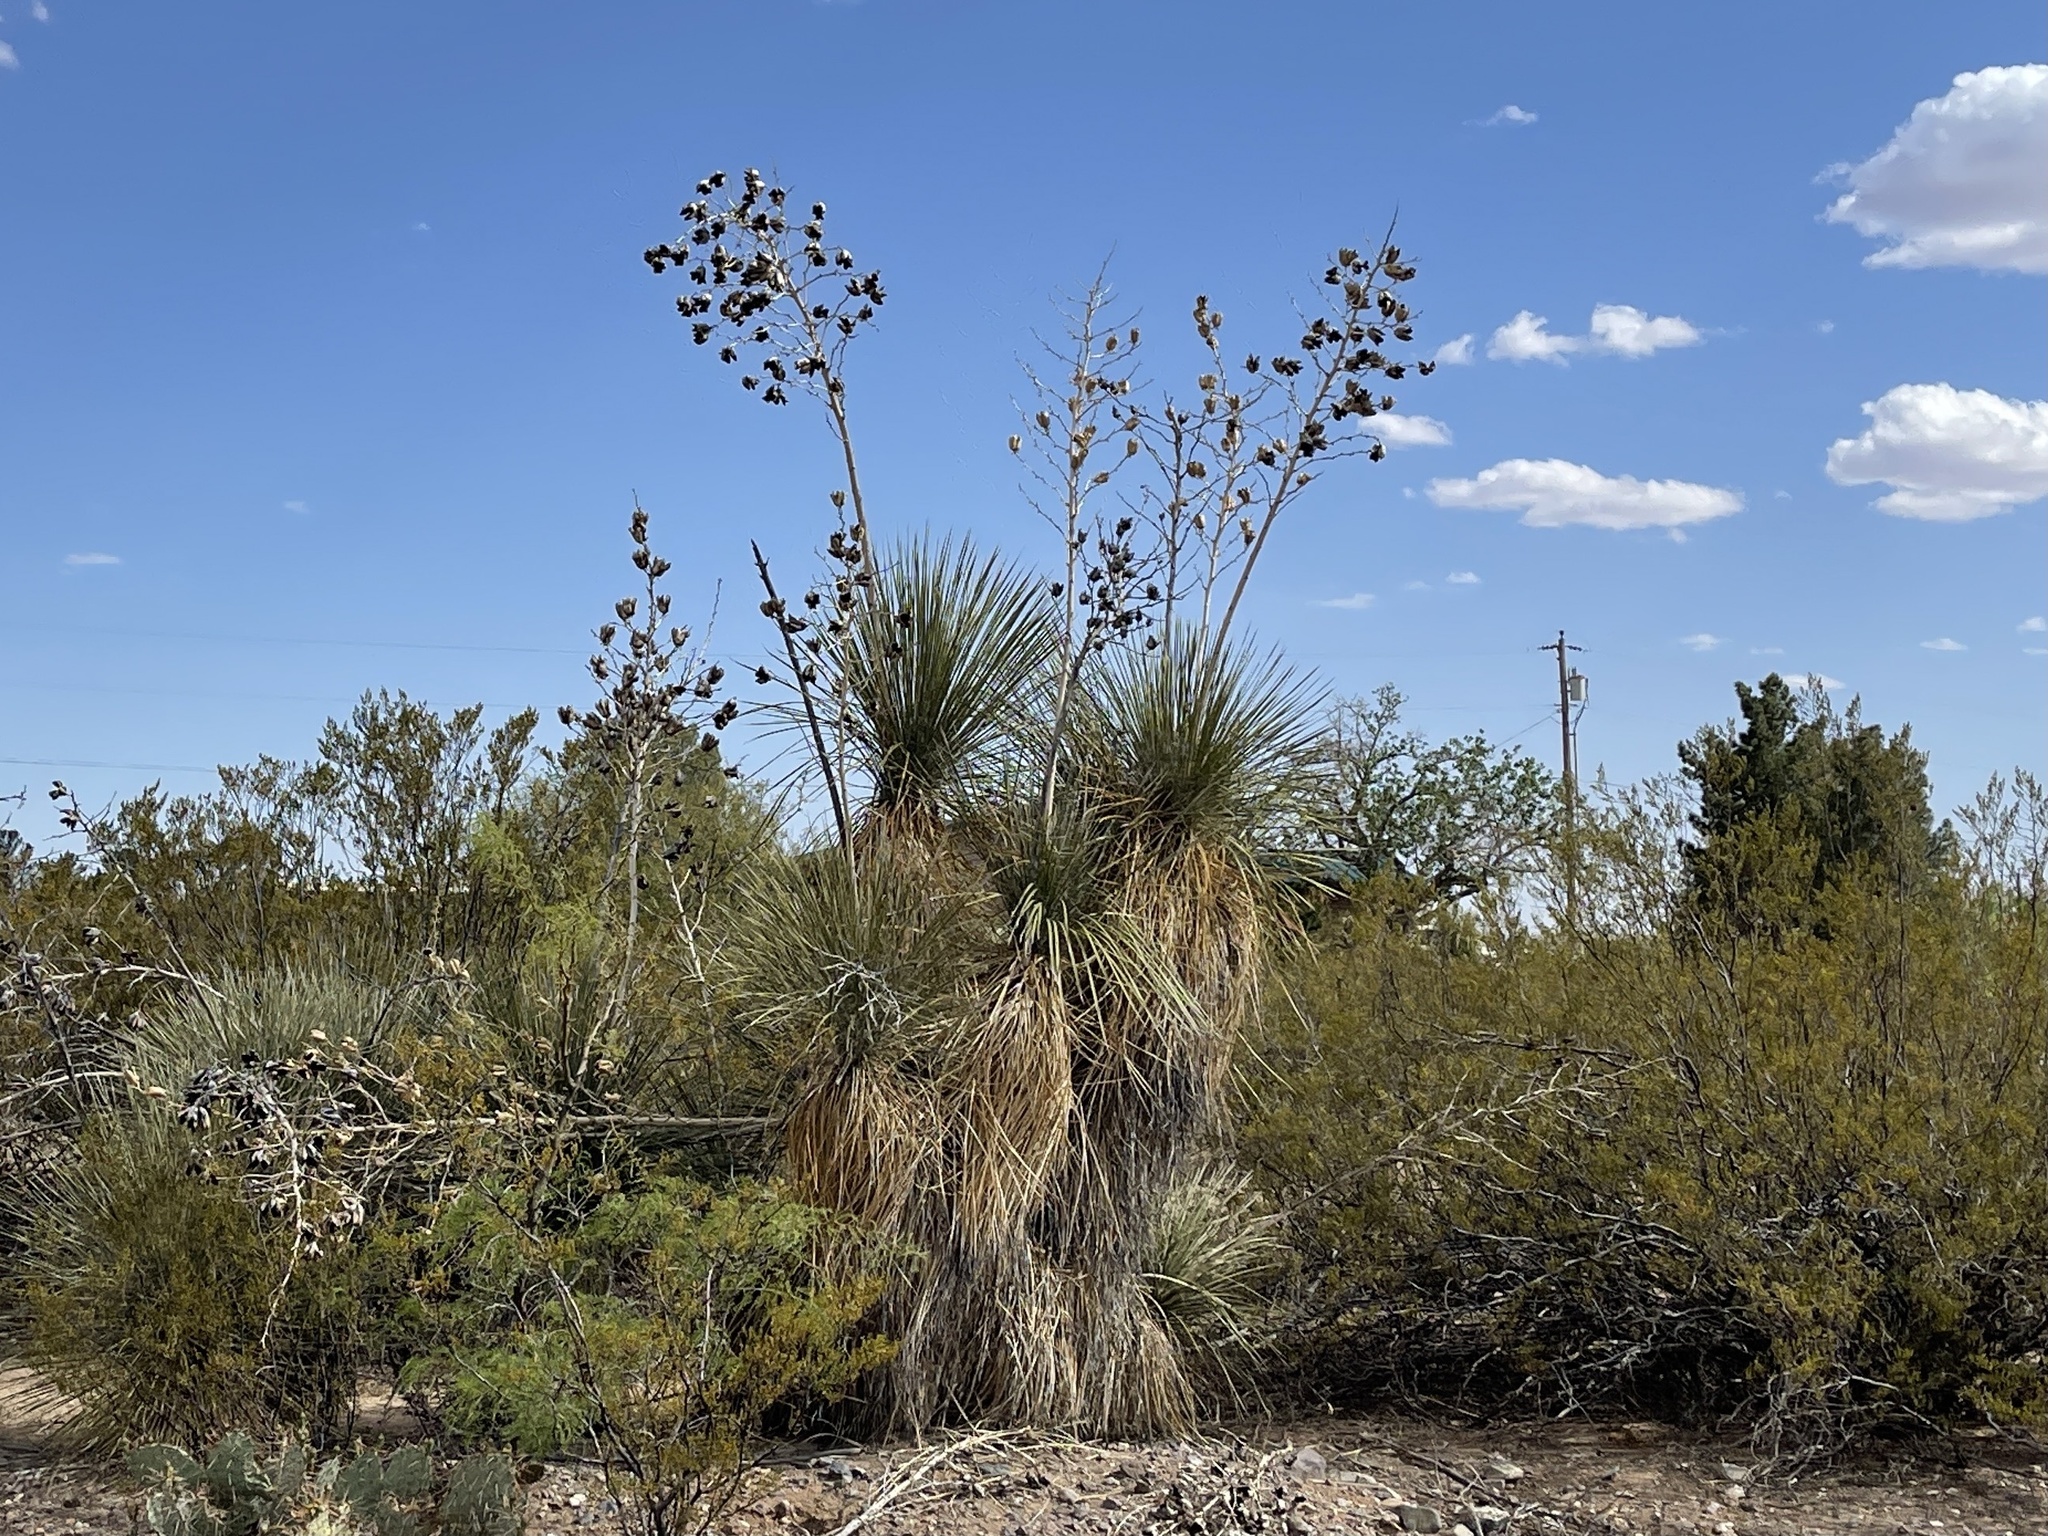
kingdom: Plantae
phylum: Tracheophyta
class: Liliopsida
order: Asparagales
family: Asparagaceae
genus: Yucca
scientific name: Yucca elata
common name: Palmella
